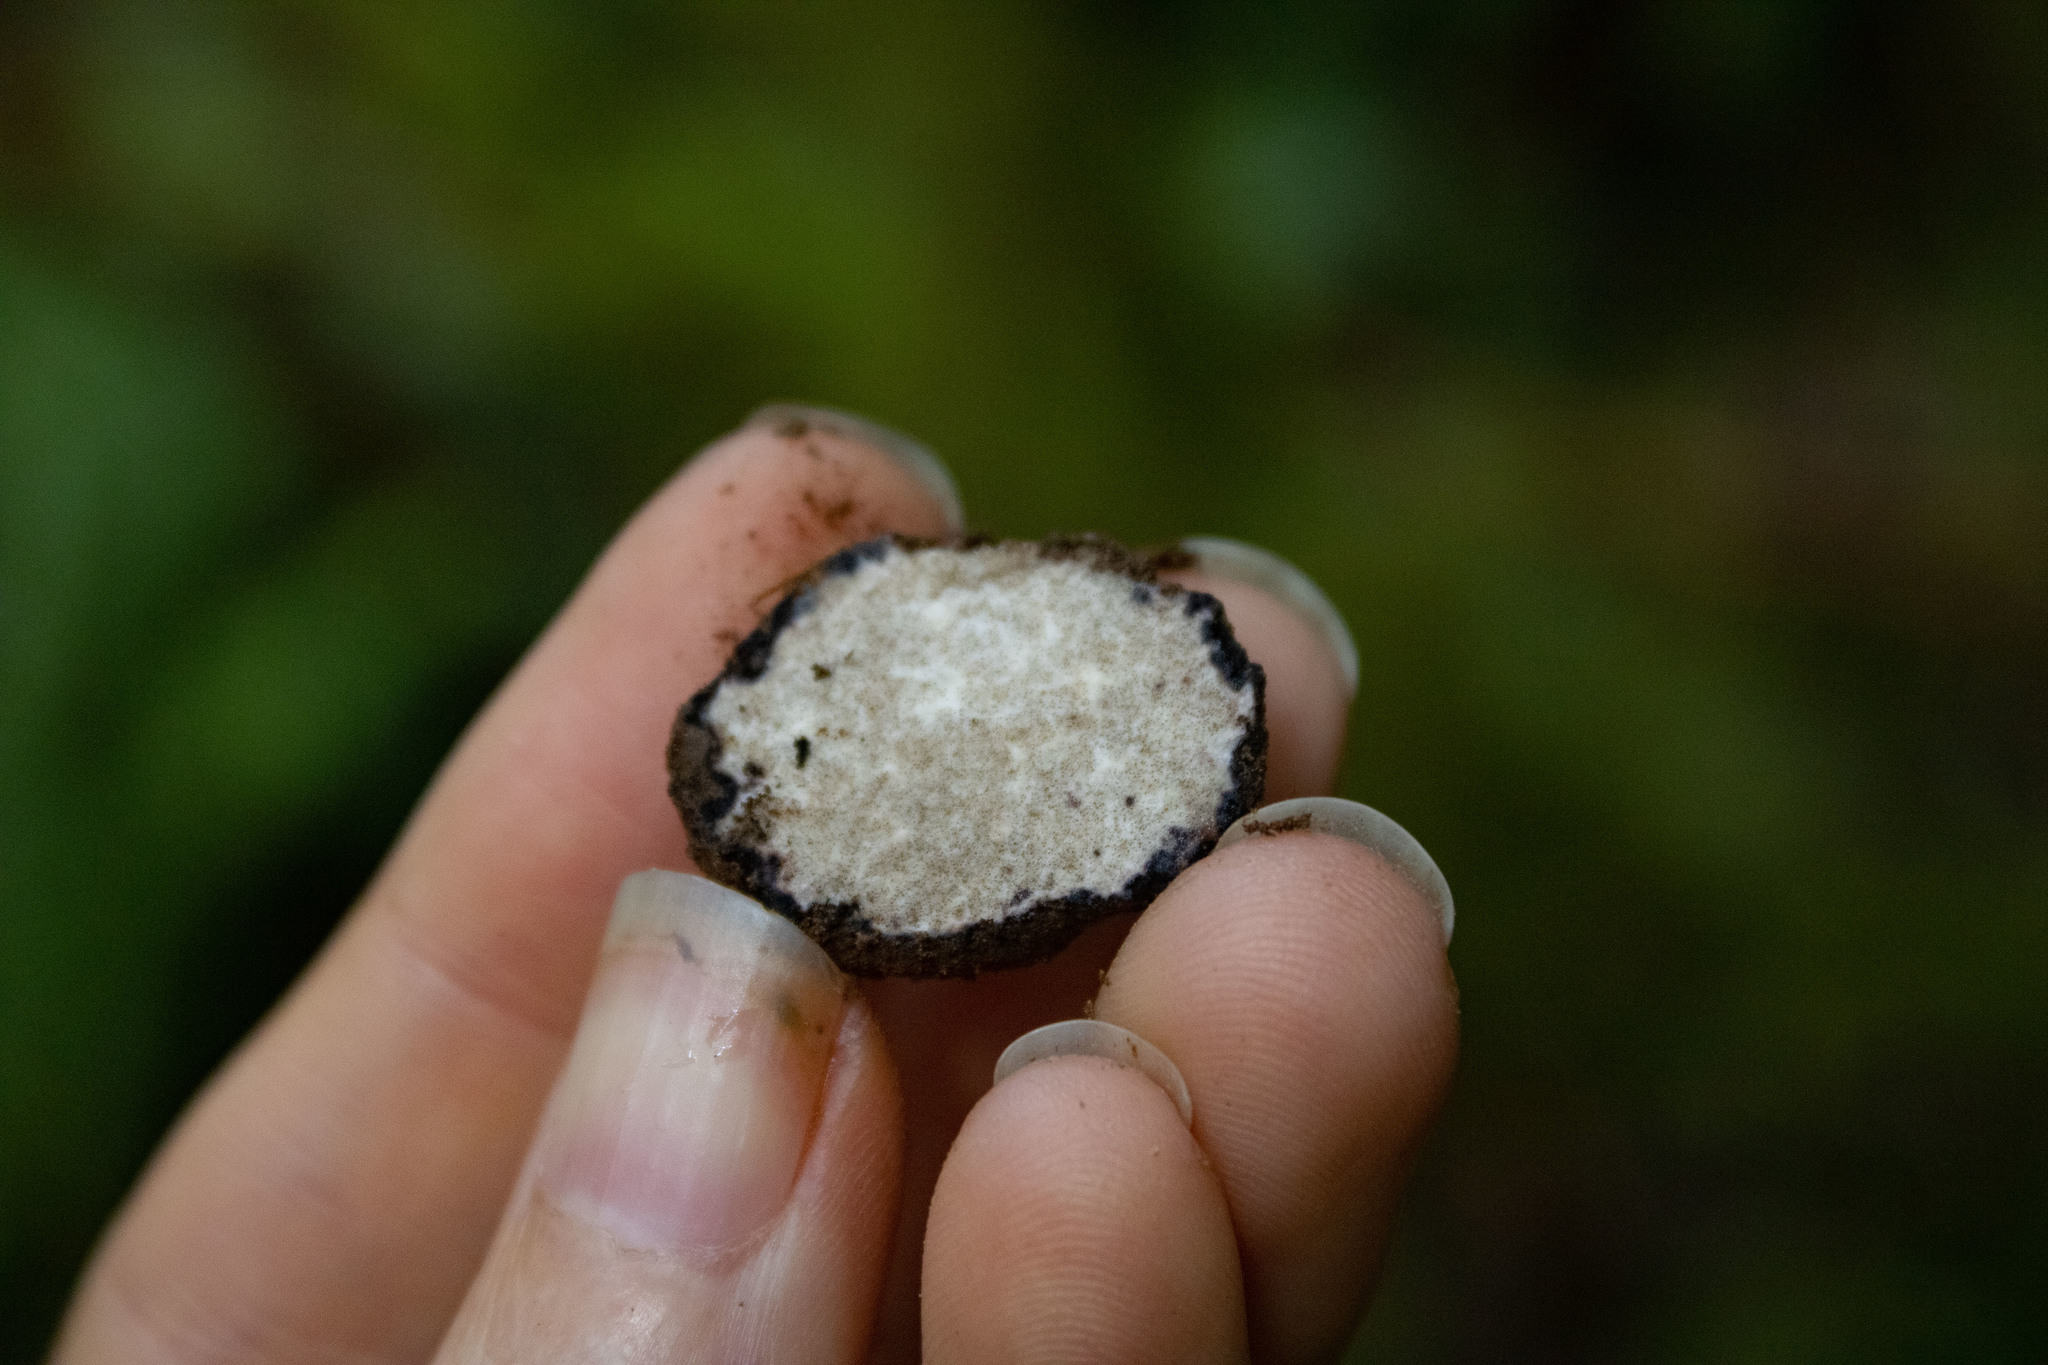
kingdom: Fungi
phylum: Ascomycota
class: Pezizomycetes
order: Pezizales
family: Morchellaceae
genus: Leucangium
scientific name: Leucangium carthusianum
